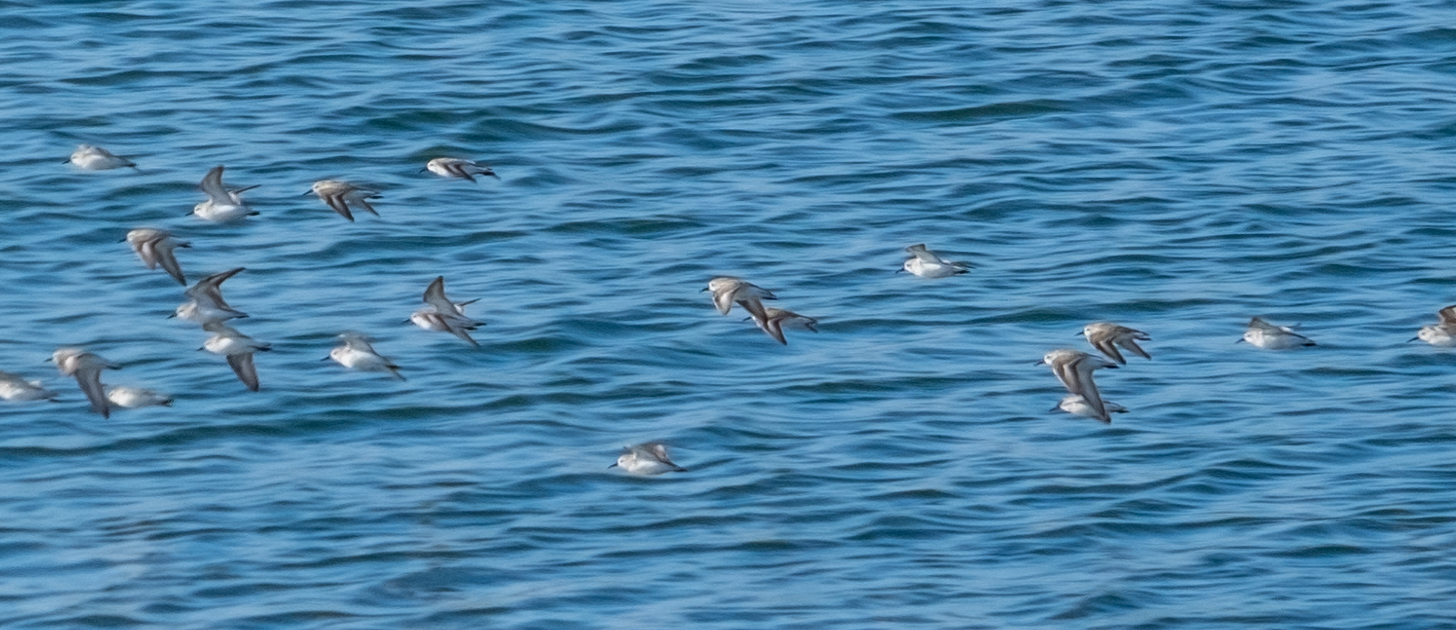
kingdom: Animalia
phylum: Chordata
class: Aves
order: Charadriiformes
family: Scolopacidae
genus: Calidris
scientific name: Calidris mauri
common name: Western sandpiper
